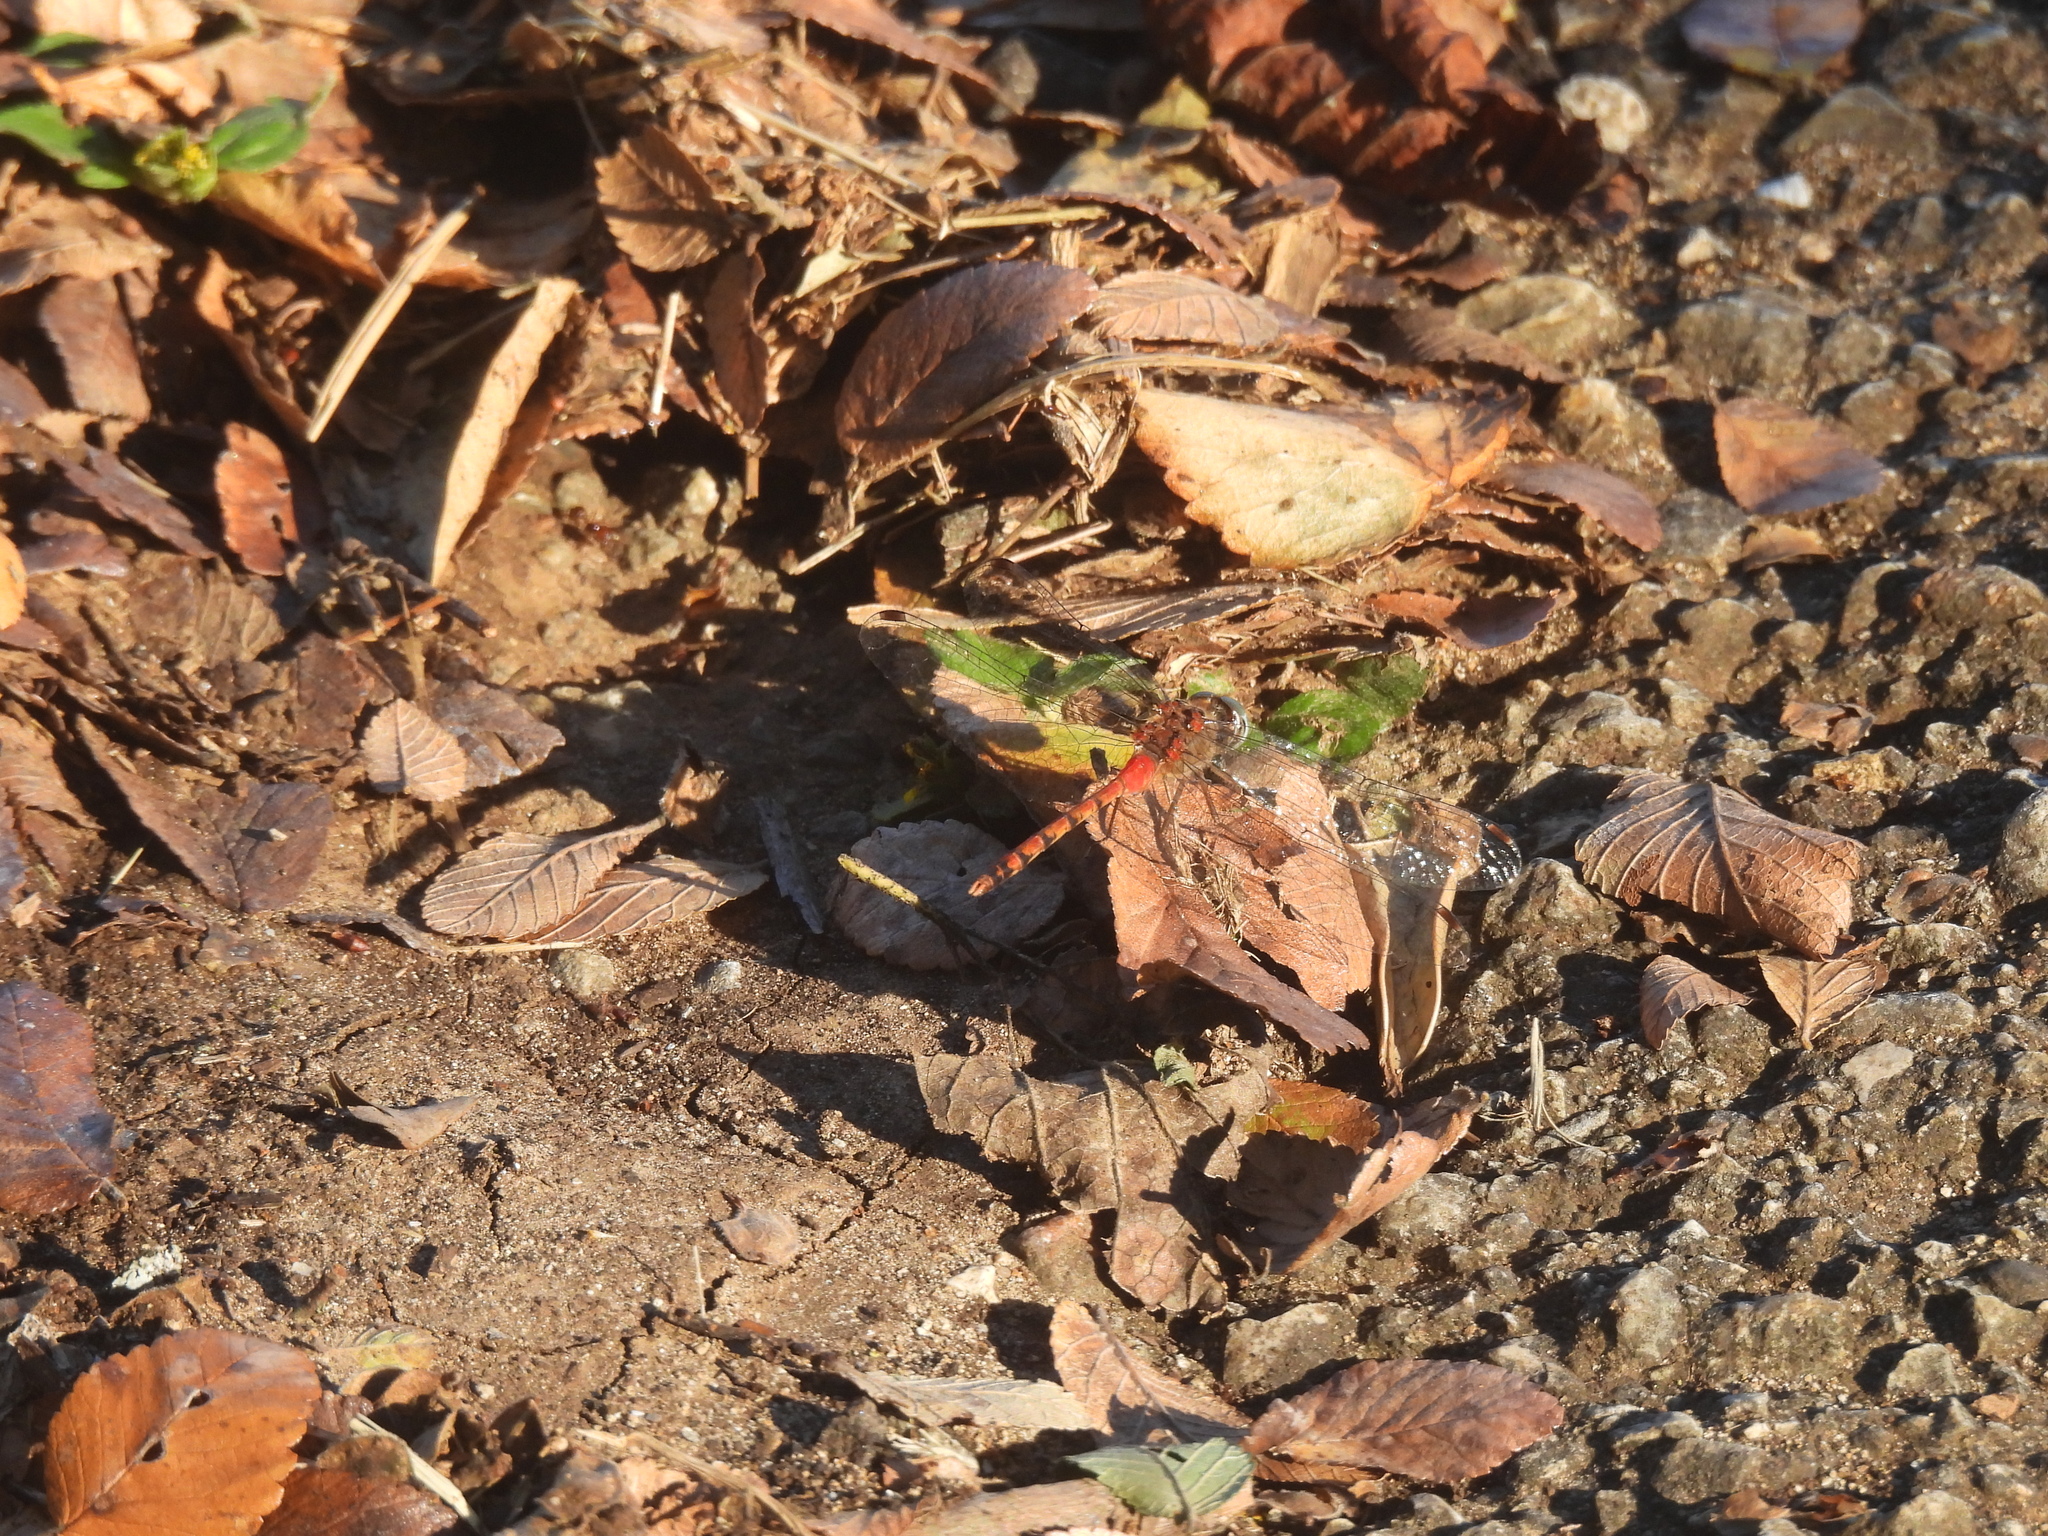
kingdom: Animalia
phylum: Arthropoda
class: Insecta
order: Odonata
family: Libellulidae
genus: Sympetrum
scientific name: Sympetrum ambiguum
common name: Blue-faced meadowhawk
